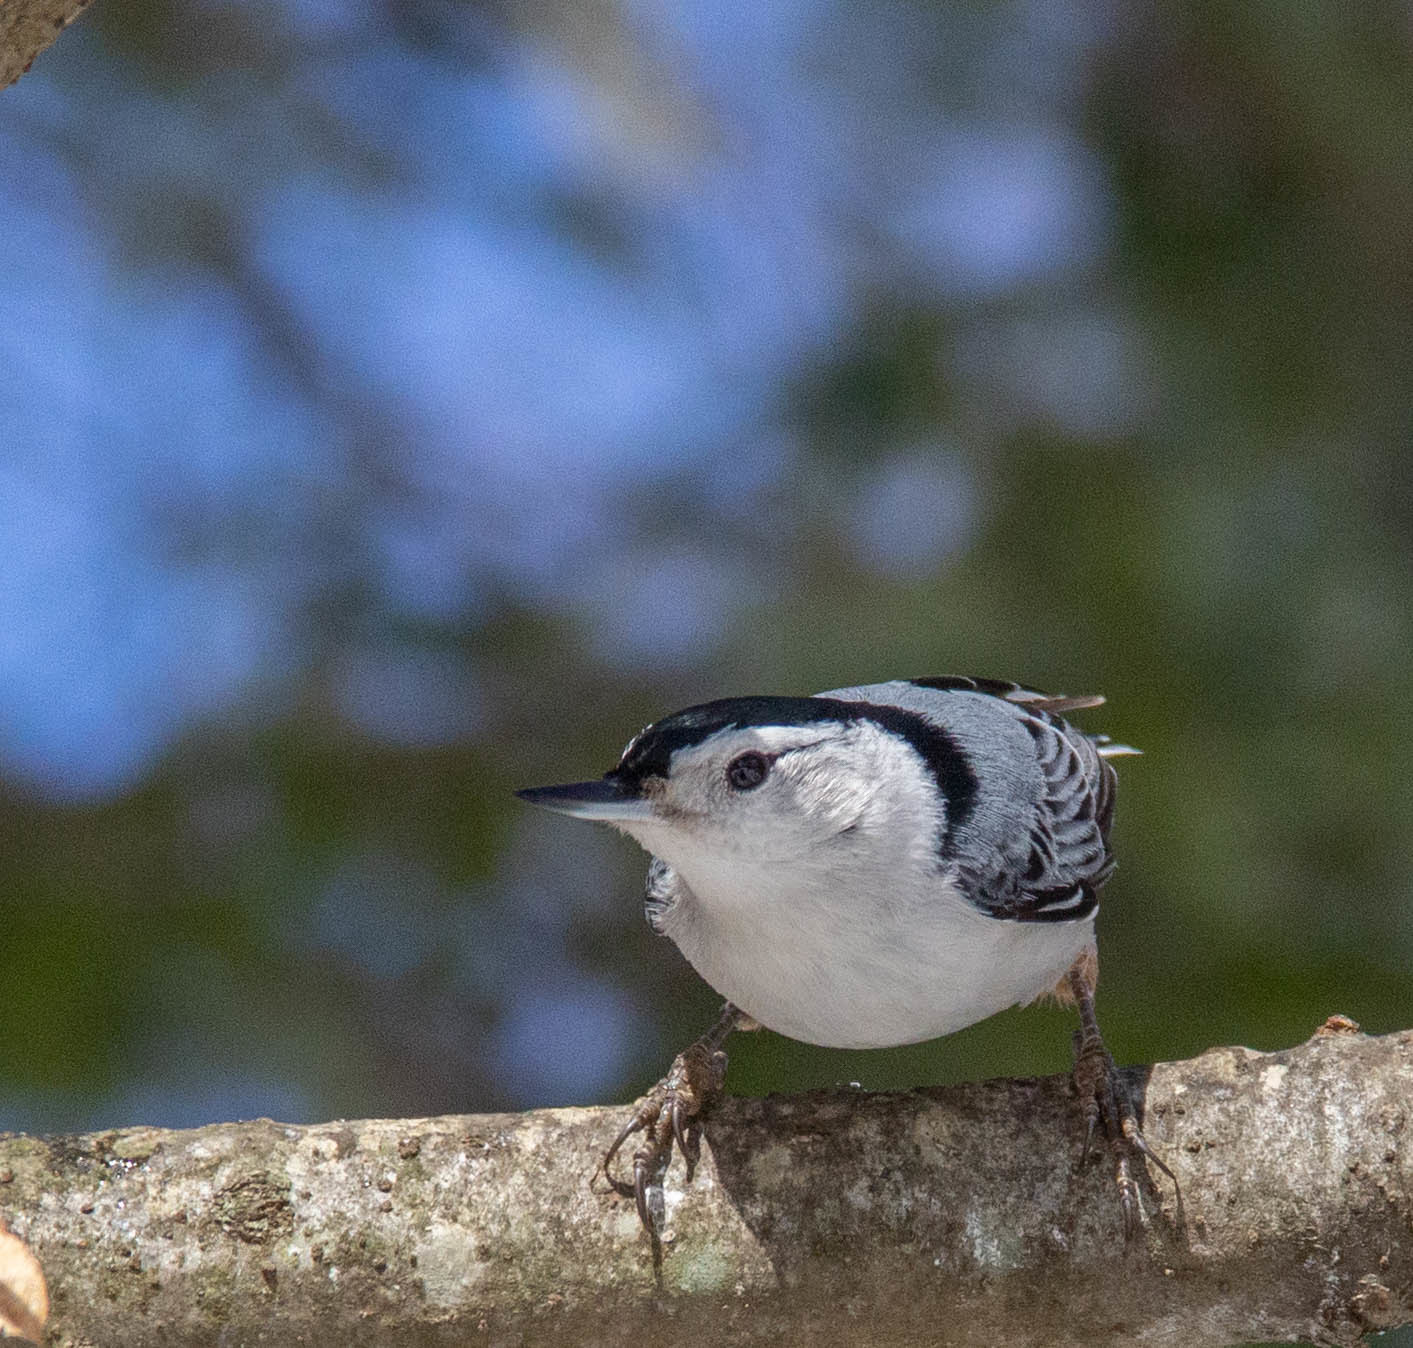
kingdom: Animalia
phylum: Chordata
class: Aves
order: Passeriformes
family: Sittidae
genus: Sitta
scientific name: Sitta carolinensis
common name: White-breasted nuthatch
